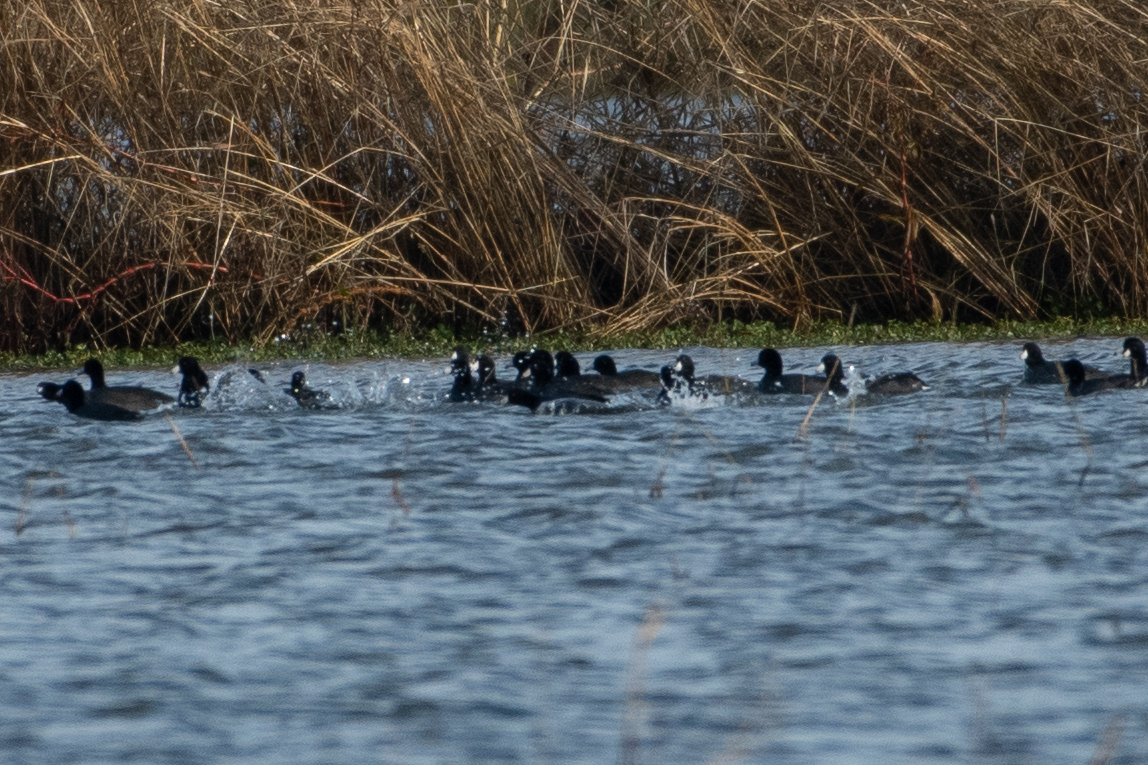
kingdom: Animalia
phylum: Chordata
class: Aves
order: Gruiformes
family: Rallidae
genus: Fulica
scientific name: Fulica americana
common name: American coot
